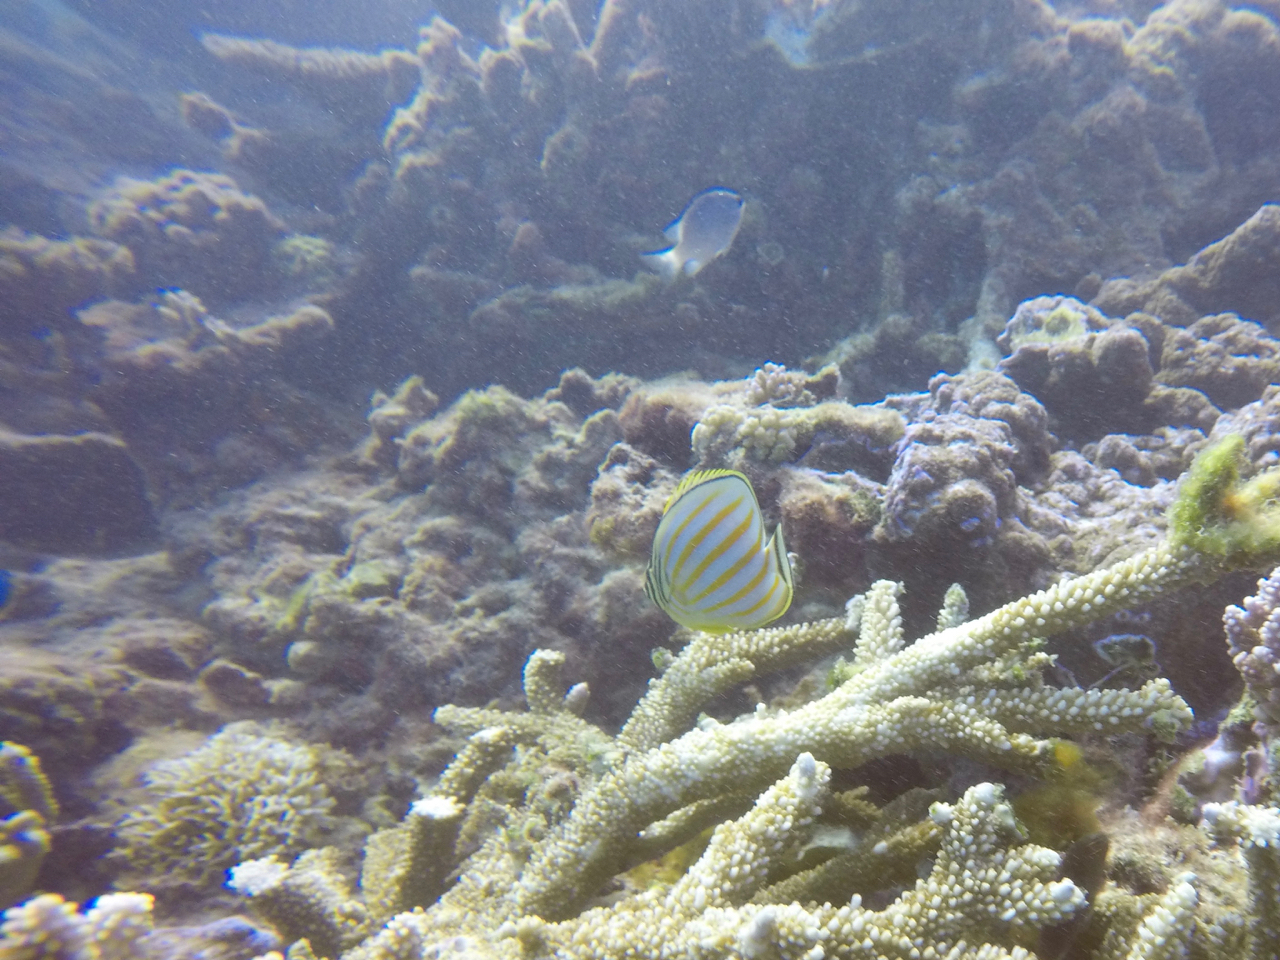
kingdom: Animalia
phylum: Chordata
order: Perciformes
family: Chaetodontidae
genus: Chaetodon
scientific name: Chaetodon ornatissimus
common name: Ornate butterflyfish
